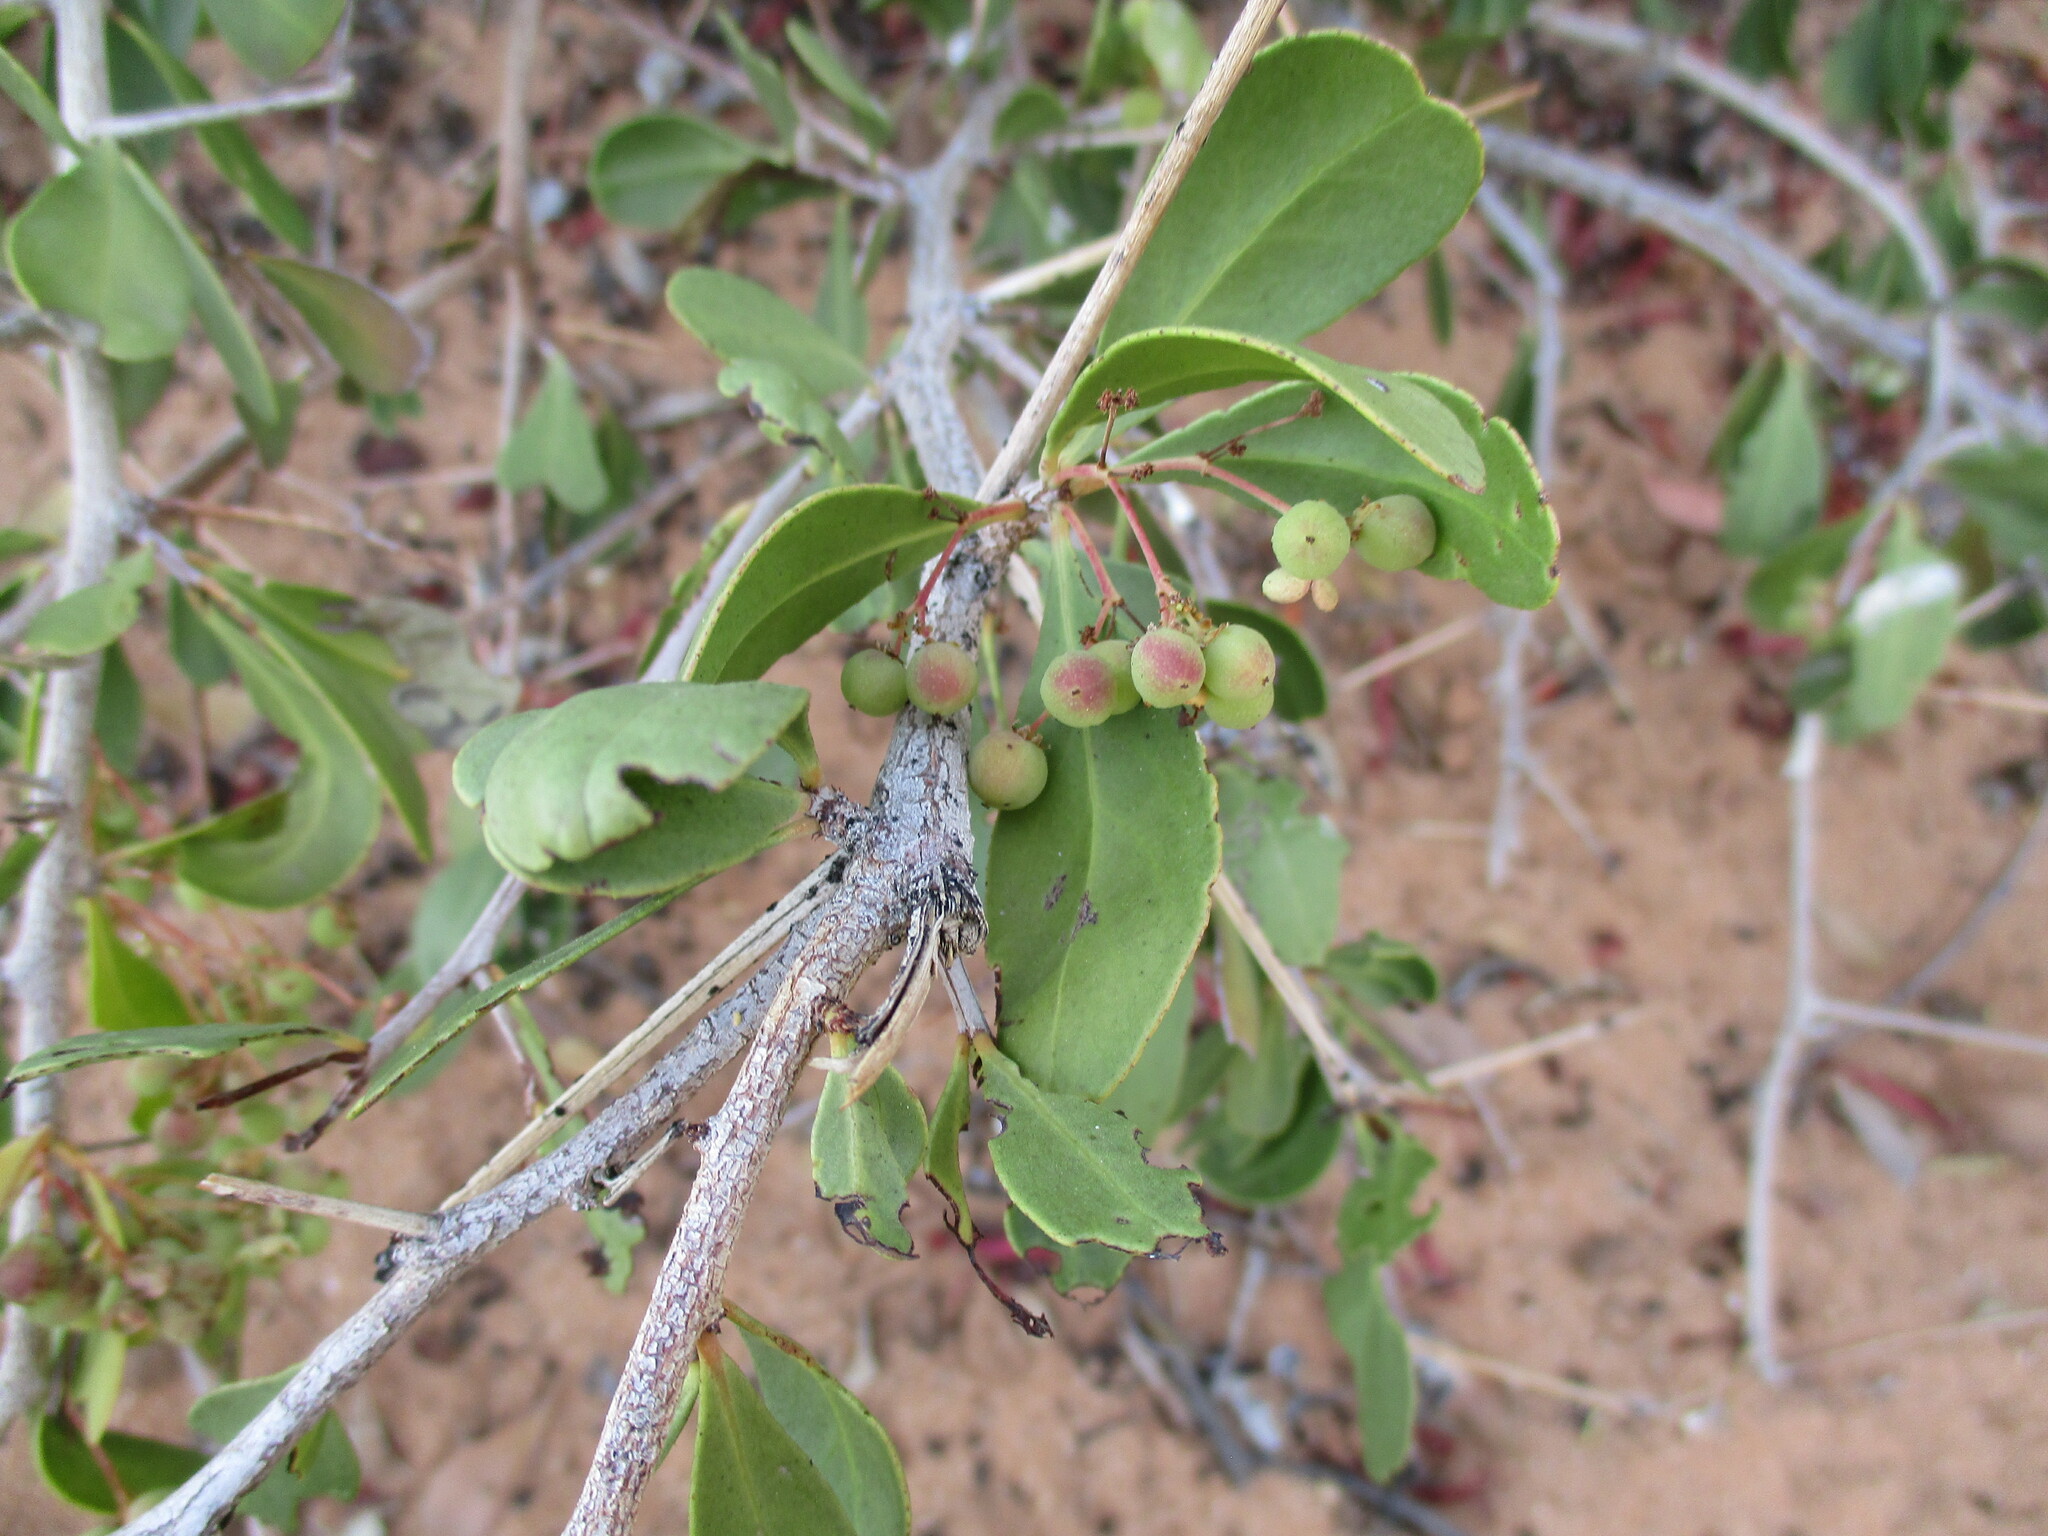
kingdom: Plantae
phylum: Tracheophyta
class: Magnoliopsida
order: Celastrales
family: Celastraceae
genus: Gymnosporia
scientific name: Gymnosporia senegalensis
